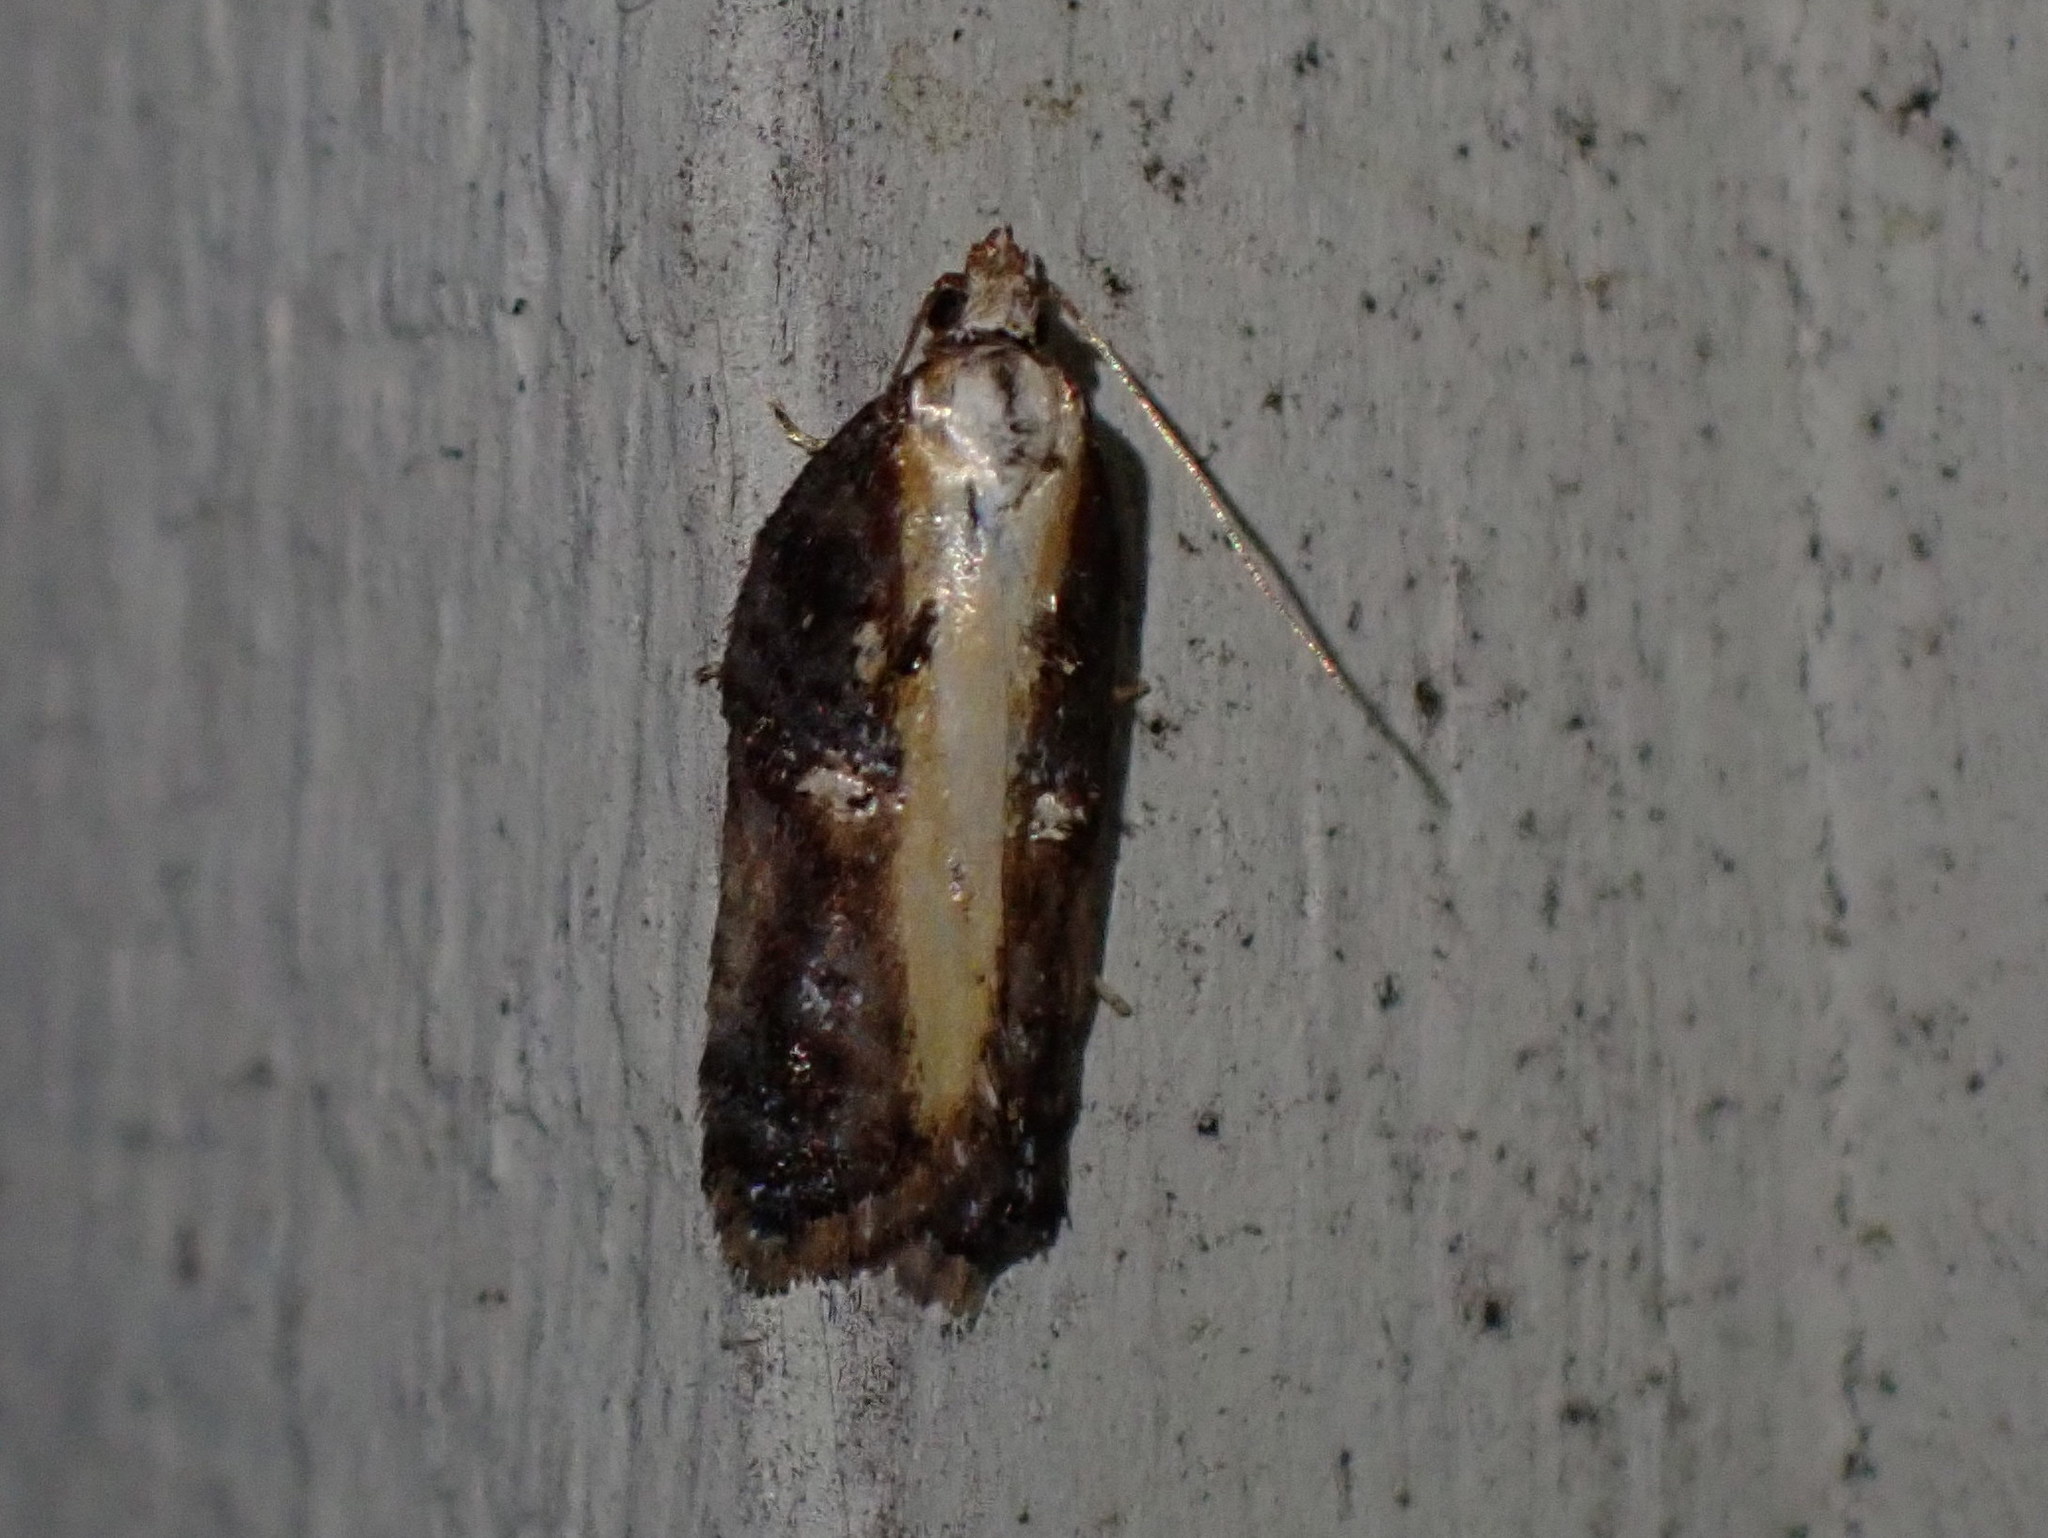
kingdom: Animalia
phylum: Arthropoda
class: Insecta
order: Lepidoptera
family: Tortricidae
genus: Acleris
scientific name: Acleris robinsoniana
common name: Robinson's acleris moth
